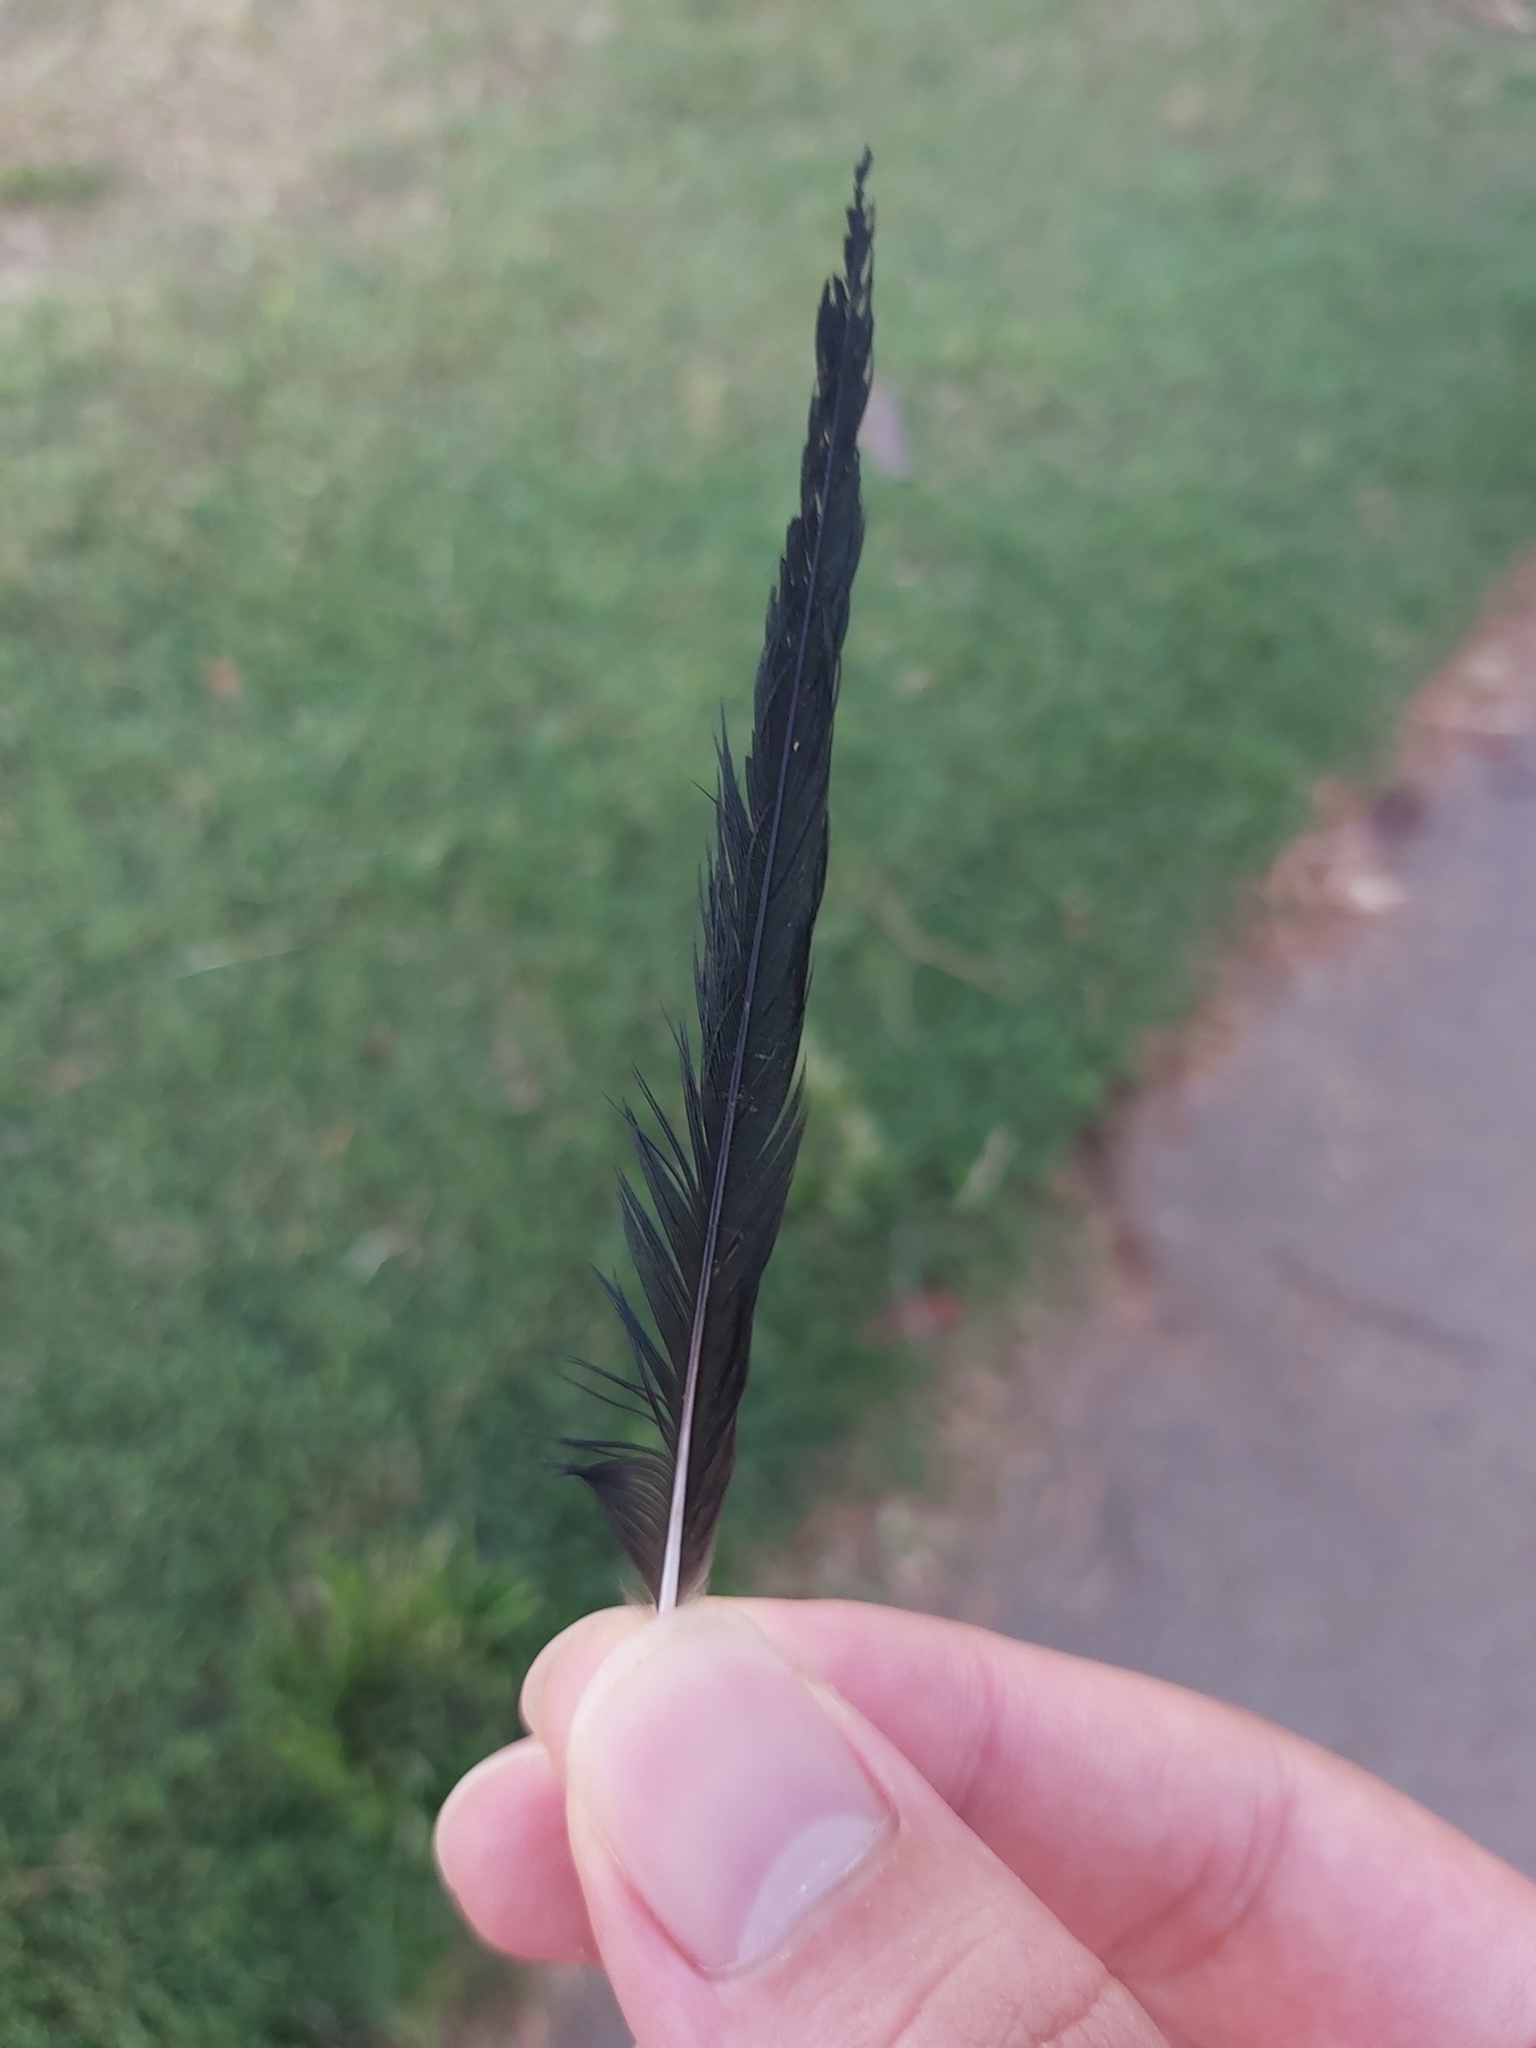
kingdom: Animalia
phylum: Chordata
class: Aves
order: Passeriformes
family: Sturnidae
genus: Aplonis
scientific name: Aplonis metallica
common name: Metallic starling
